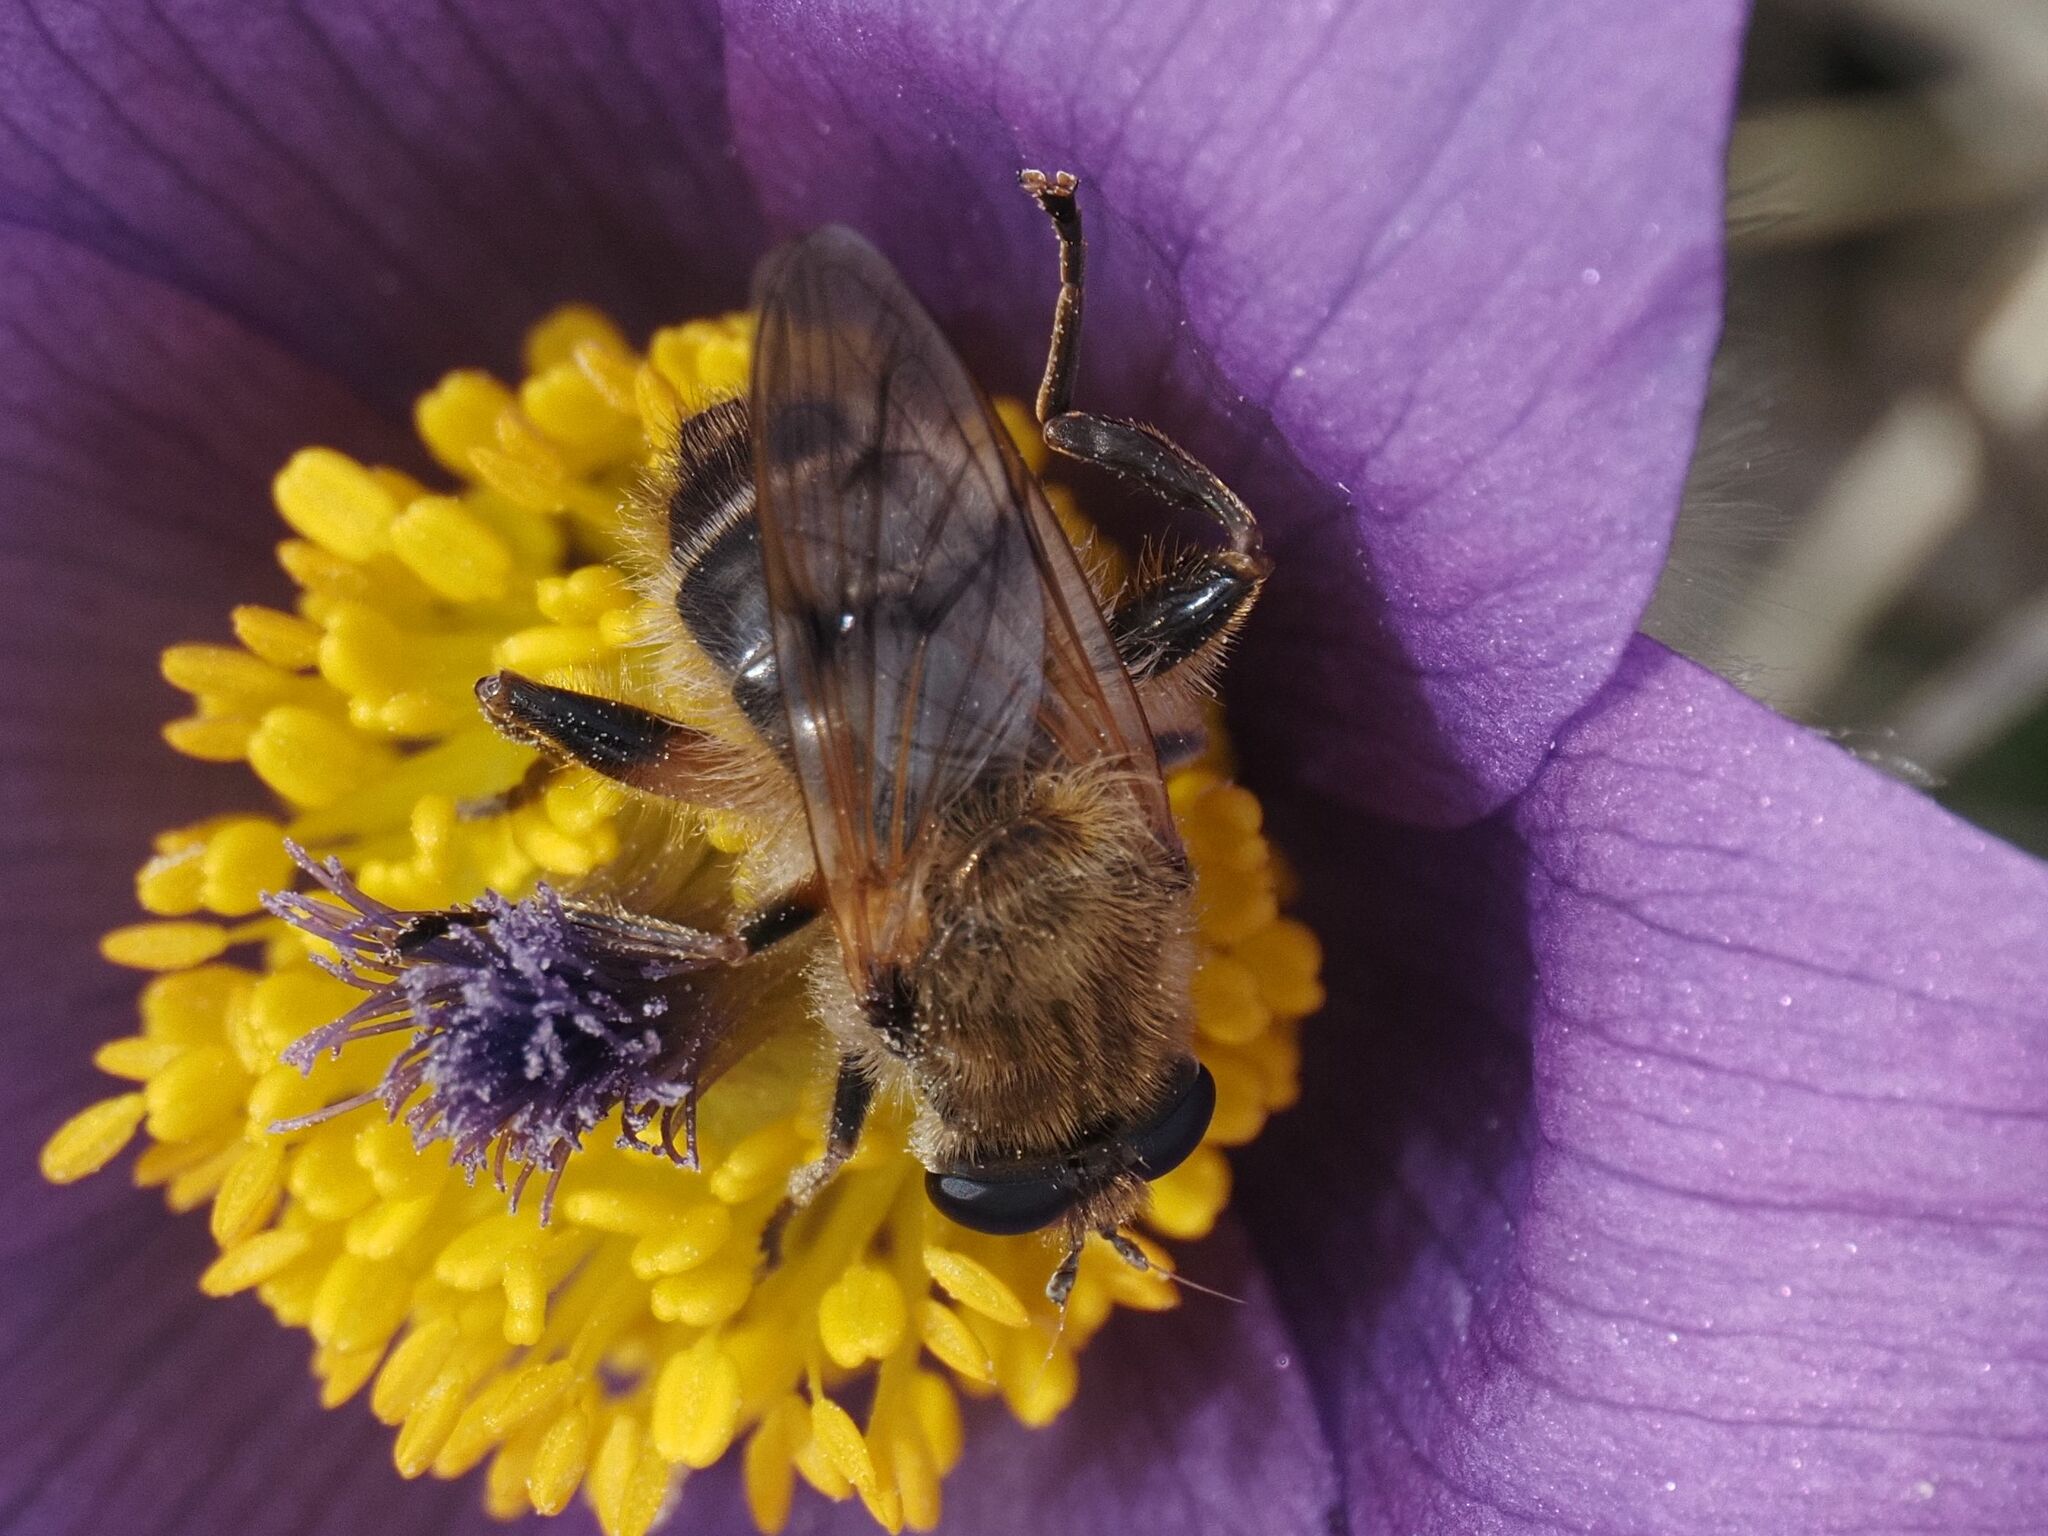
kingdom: Animalia
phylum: Arthropoda
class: Insecta
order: Diptera
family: Syrphidae
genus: Brachypalpus
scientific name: Brachypalpus valgus
